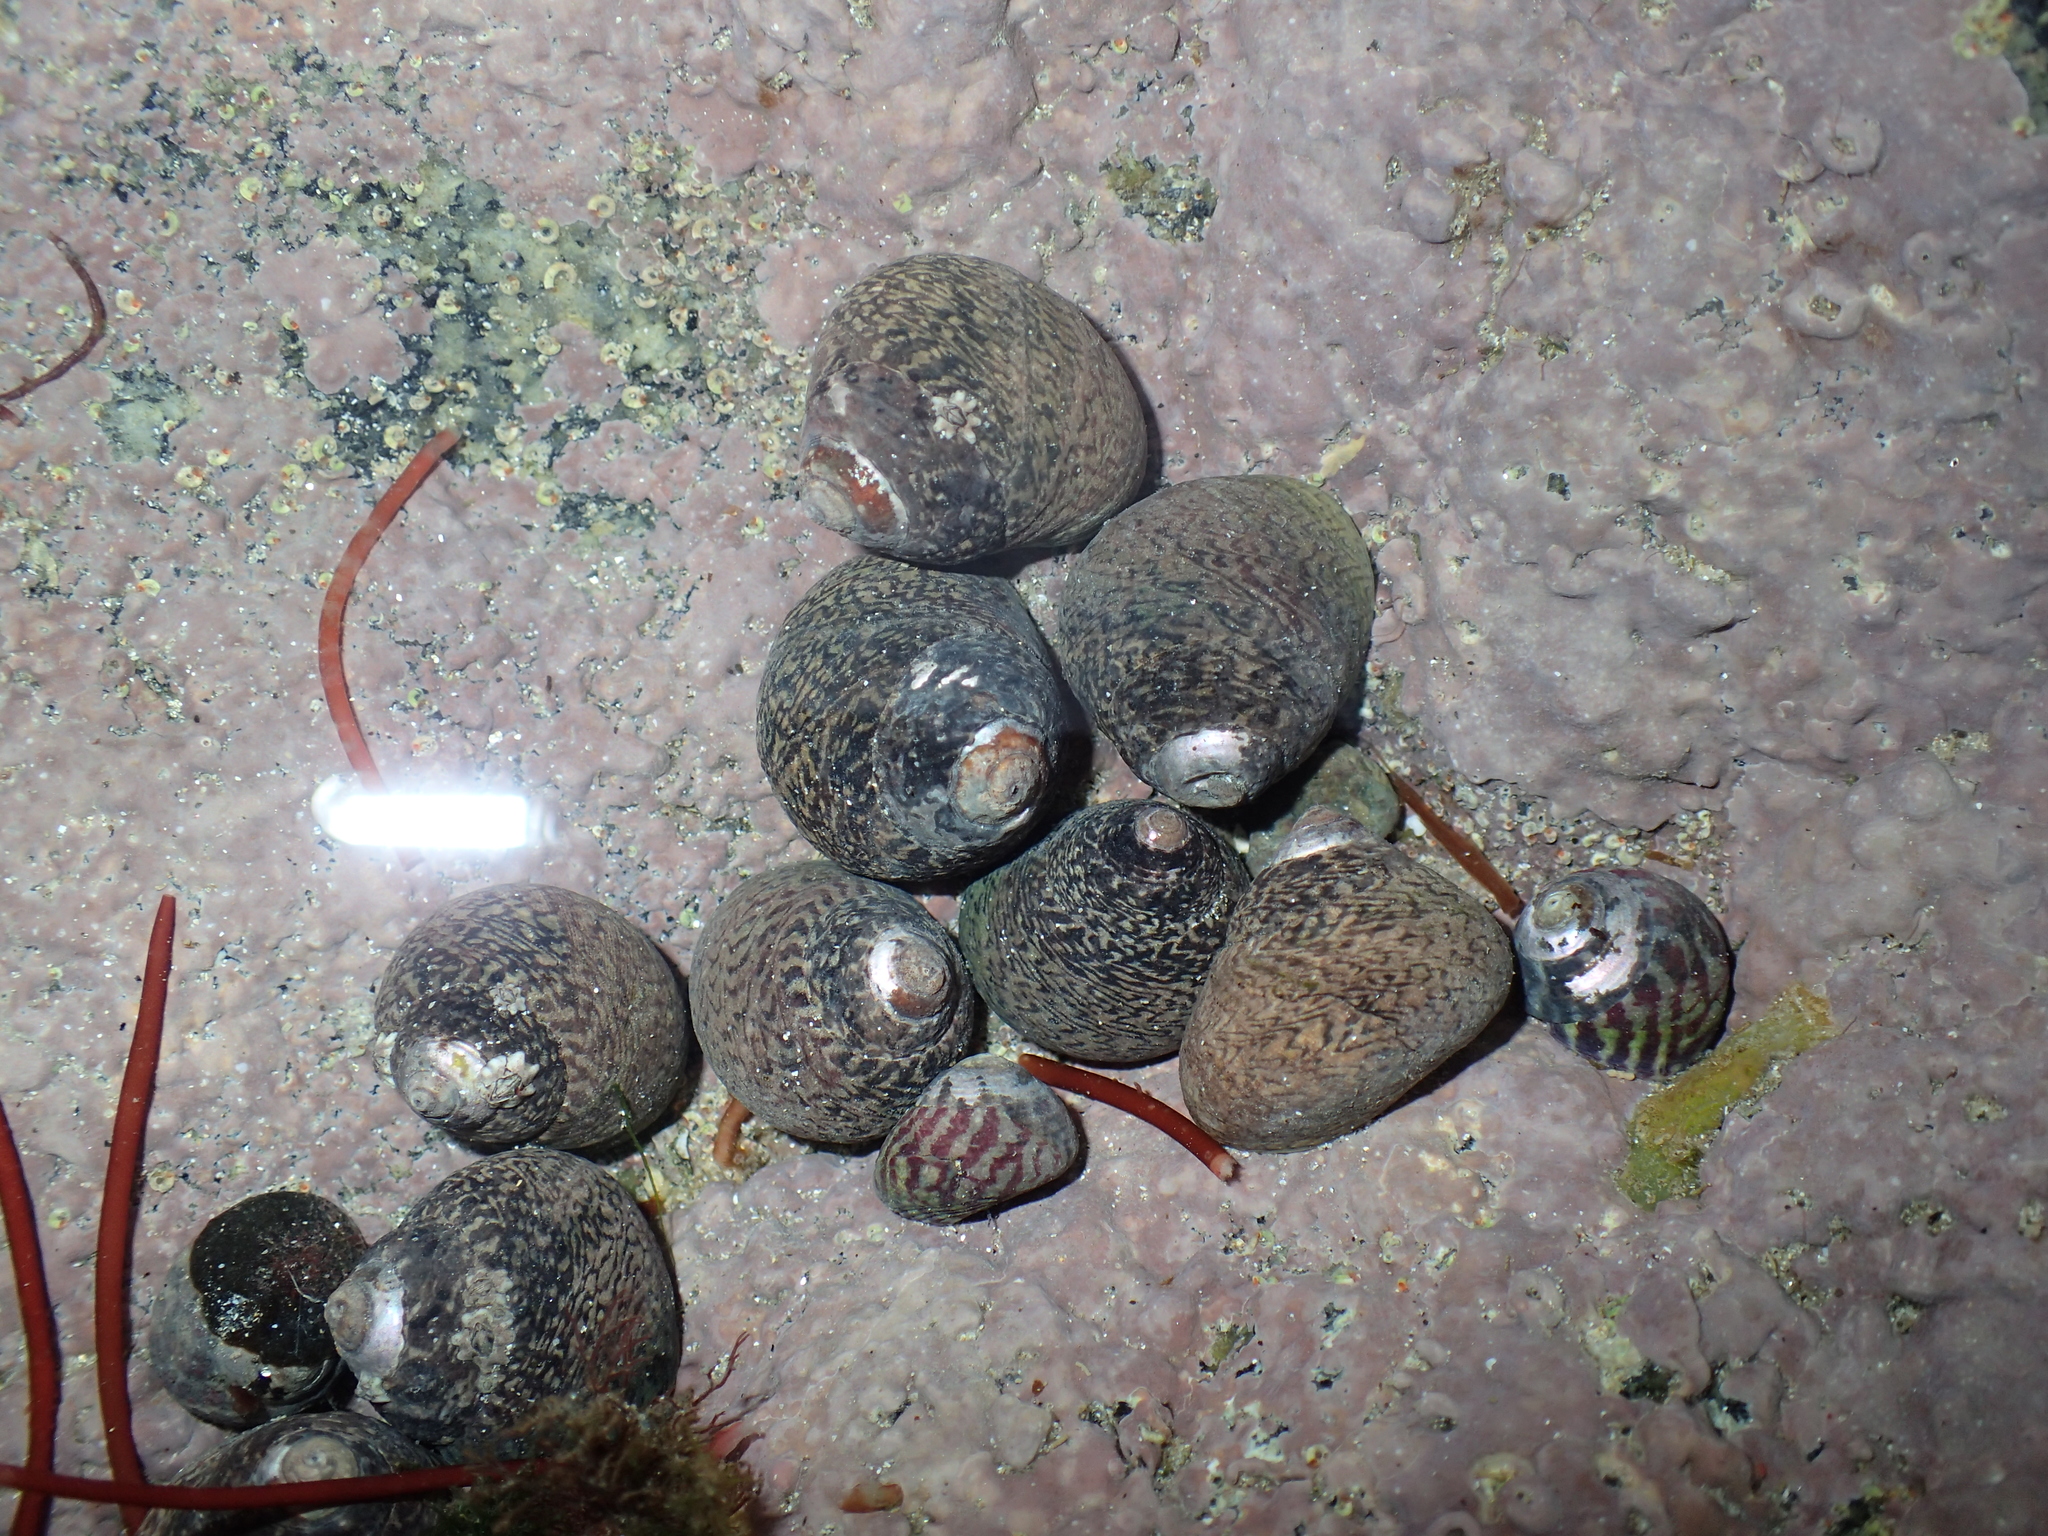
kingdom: Animalia
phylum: Mollusca
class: Gastropoda
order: Trochida
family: Trochidae
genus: Phorcus
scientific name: Phorcus lineatus
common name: Toothed top shell
